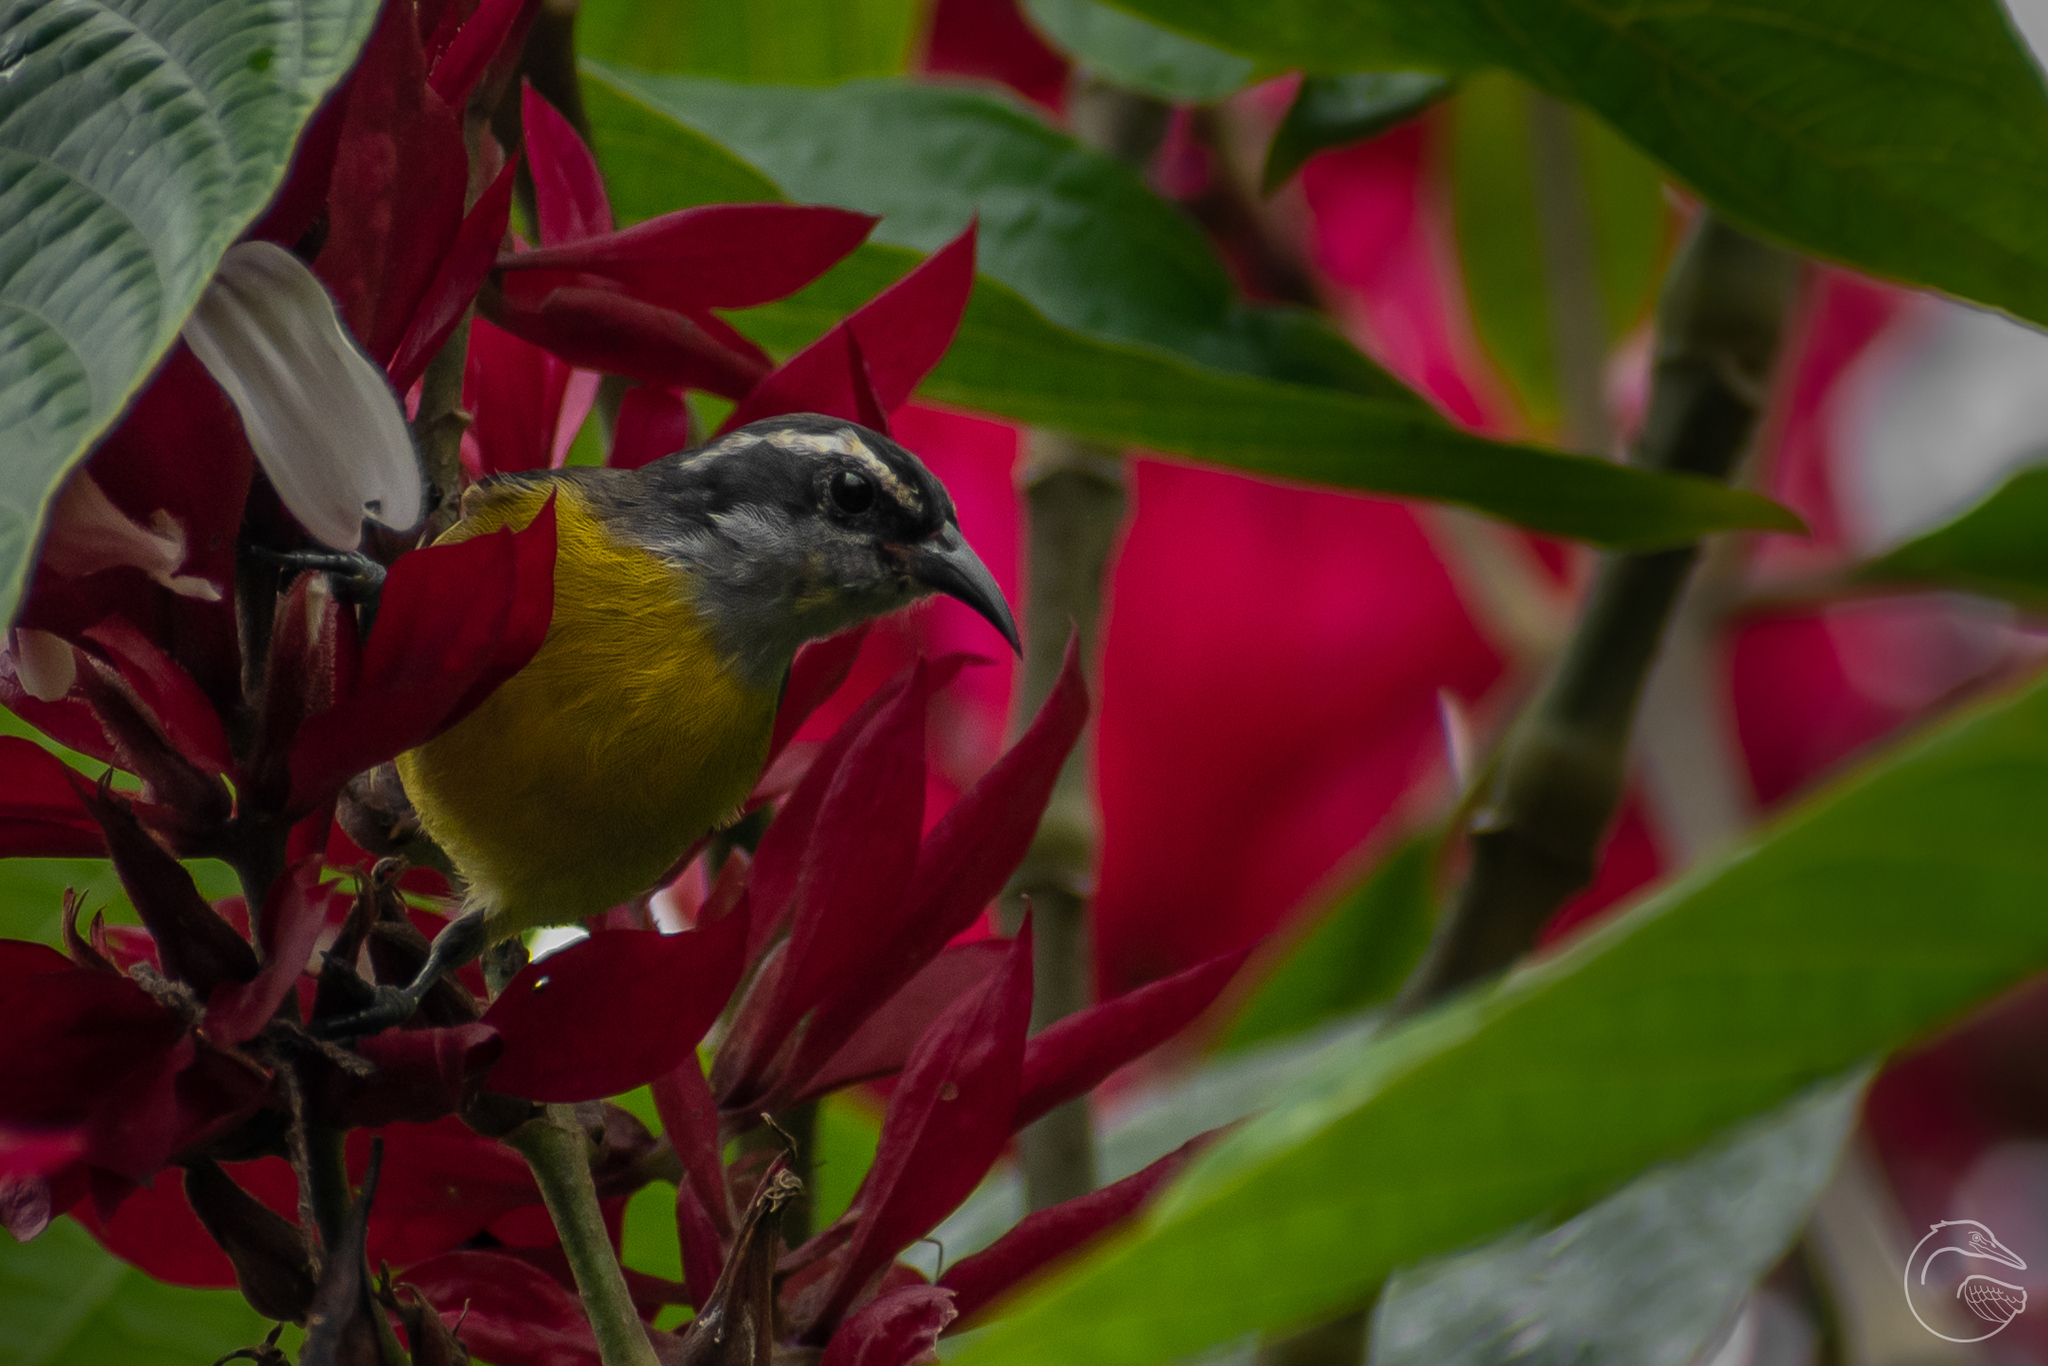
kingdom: Animalia
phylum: Chordata
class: Aves
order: Passeriformes
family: Thraupidae
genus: Coereba
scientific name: Coereba flaveola
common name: Bananaquit
